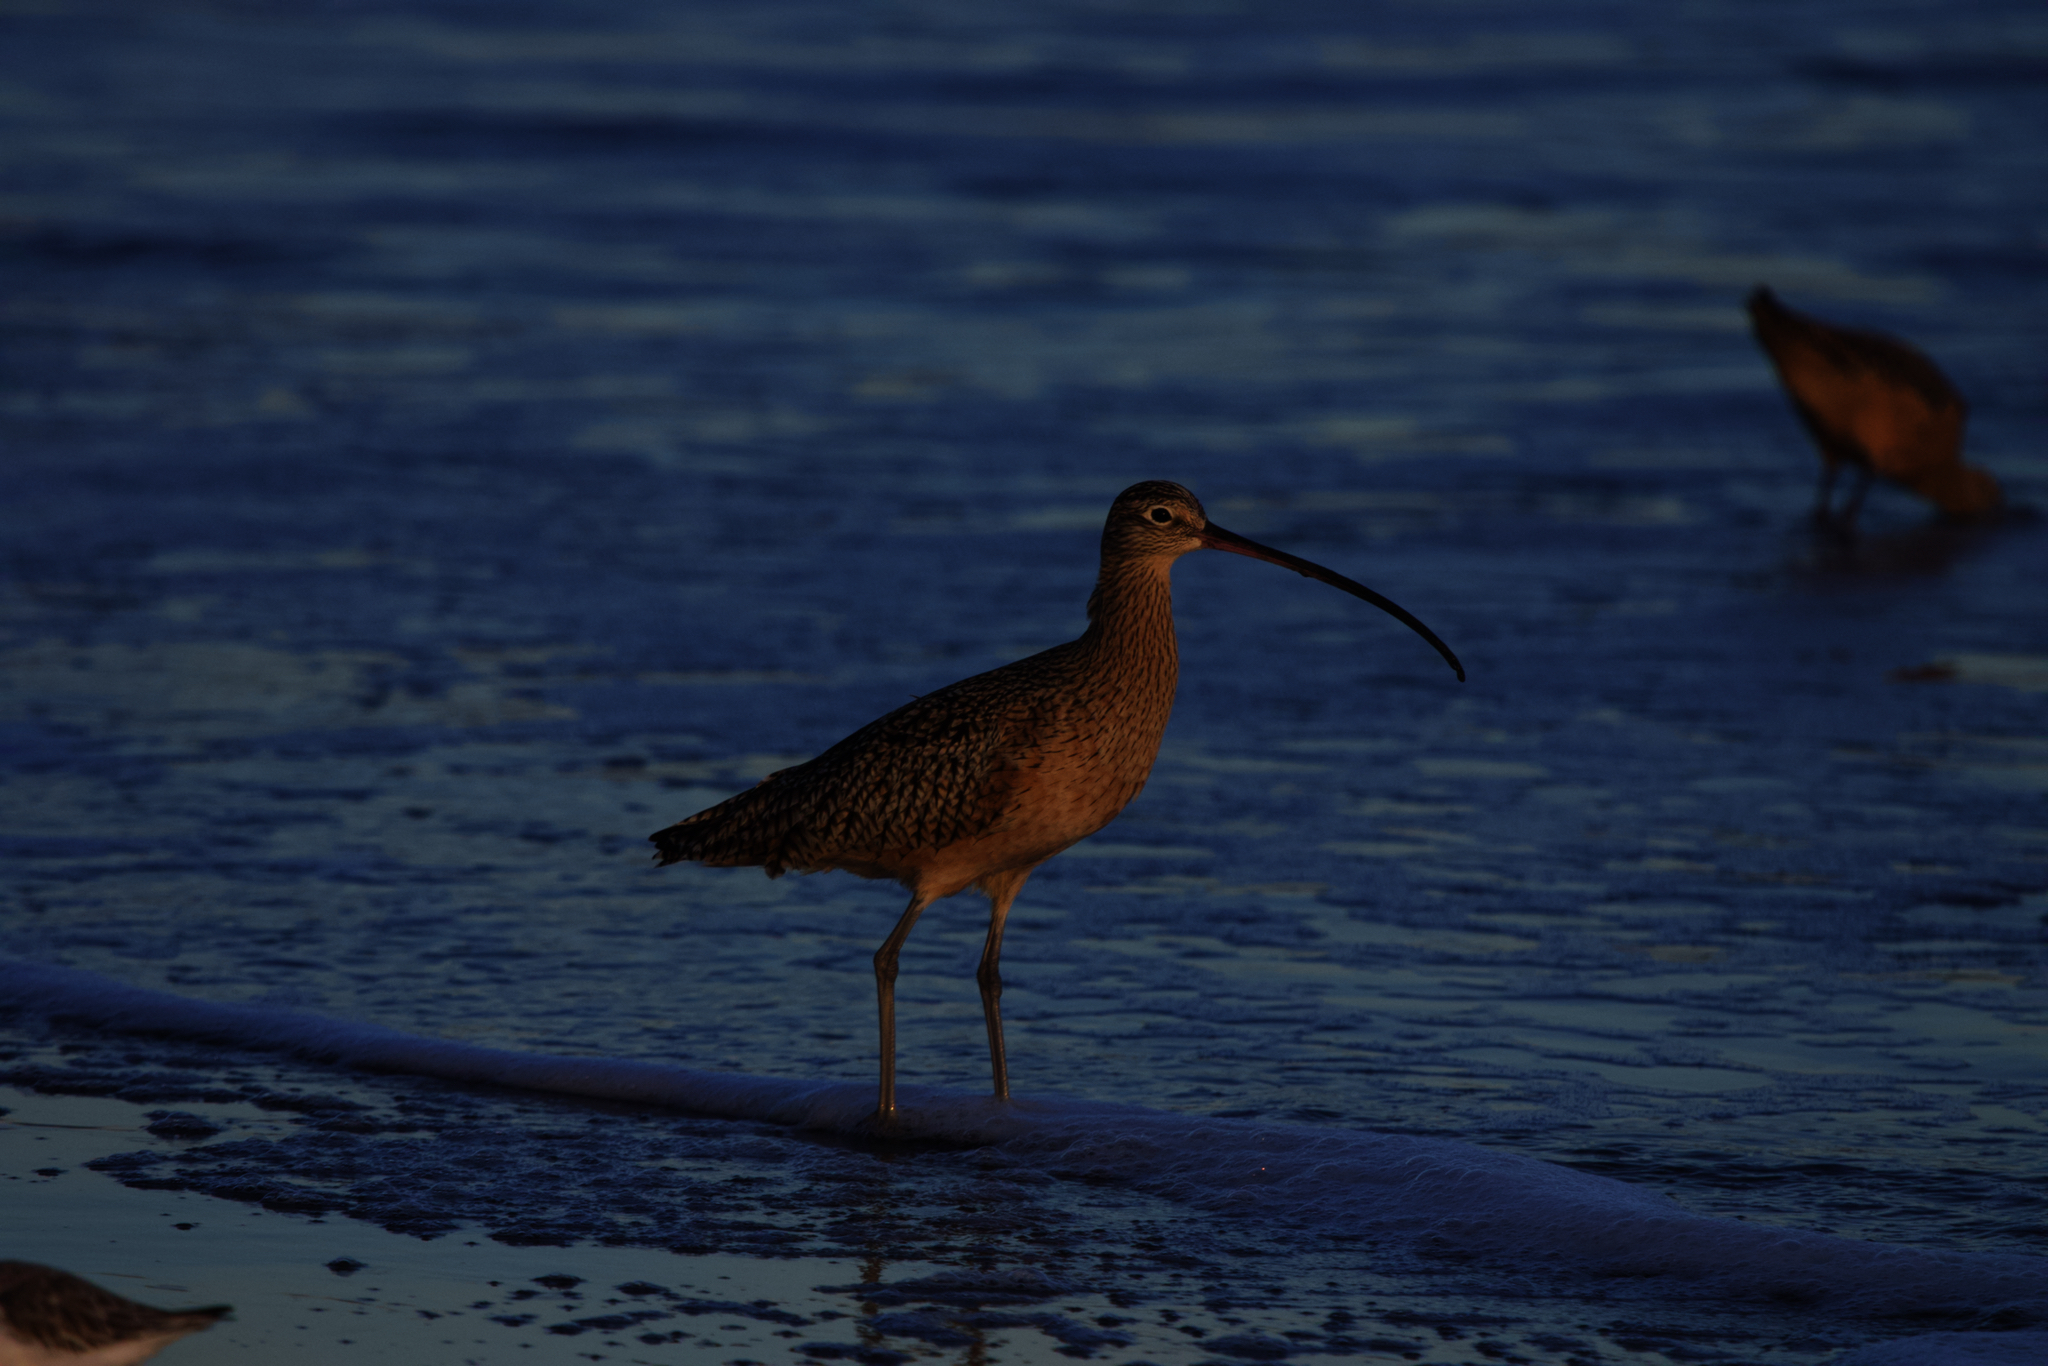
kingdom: Animalia
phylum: Chordata
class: Aves
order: Charadriiformes
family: Scolopacidae
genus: Numenius
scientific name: Numenius americanus
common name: Long-billed curlew
